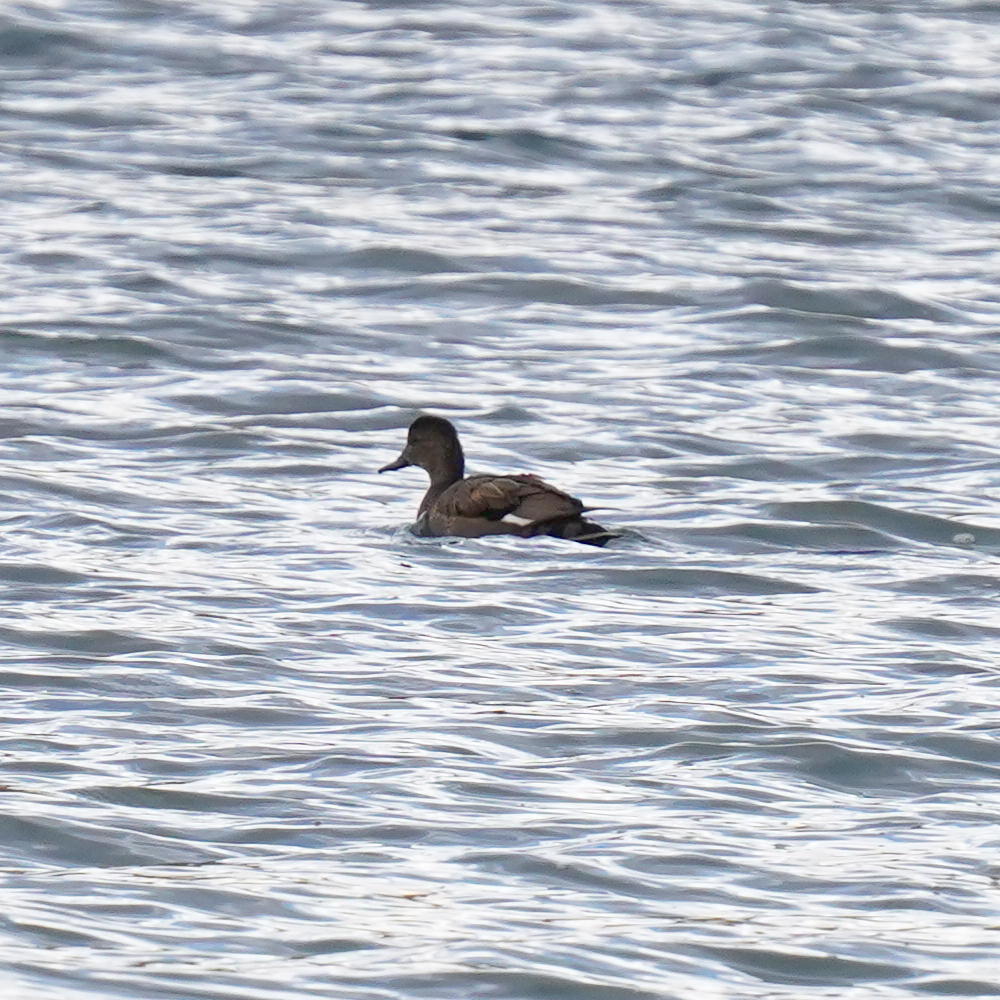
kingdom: Animalia
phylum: Chordata
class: Aves
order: Anseriformes
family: Anatidae
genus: Mareca
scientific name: Mareca strepera
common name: Gadwall
